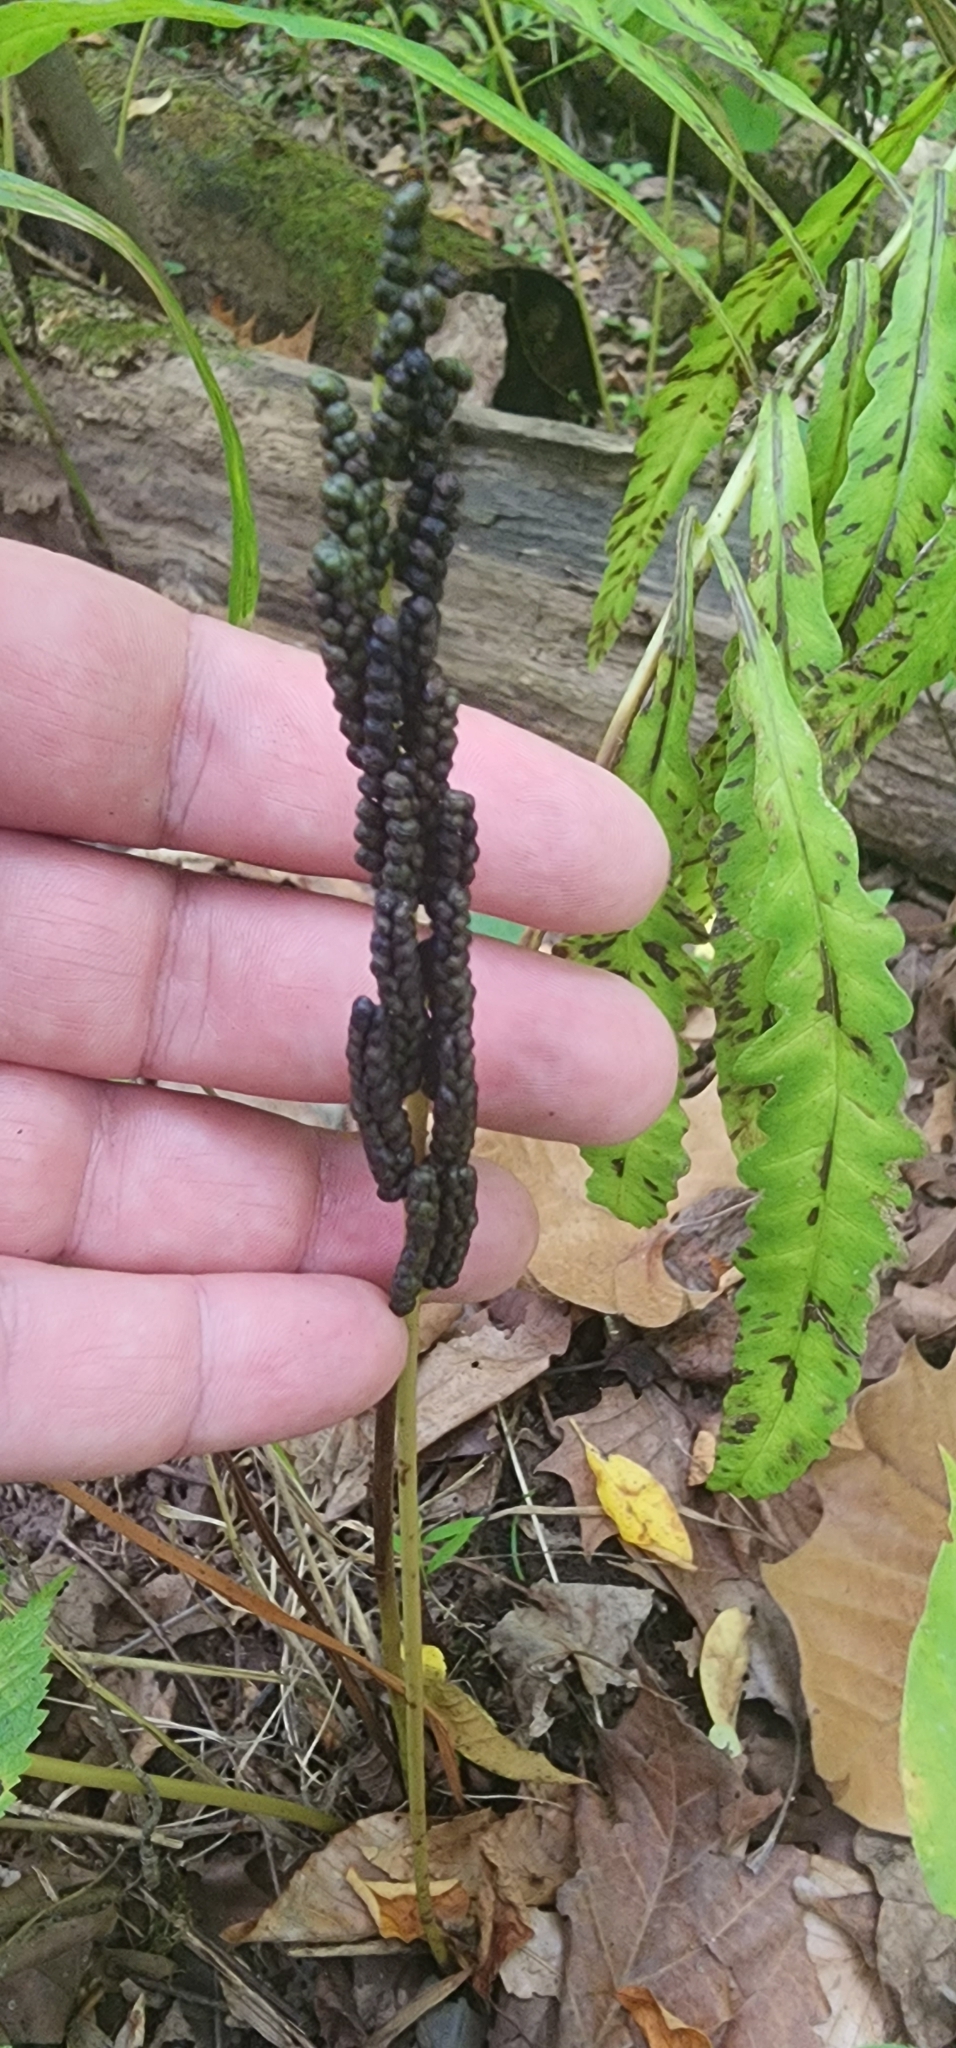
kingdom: Plantae
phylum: Tracheophyta
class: Polypodiopsida
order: Polypodiales
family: Onocleaceae
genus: Onoclea
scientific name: Onoclea sensibilis
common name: Sensitive fern
